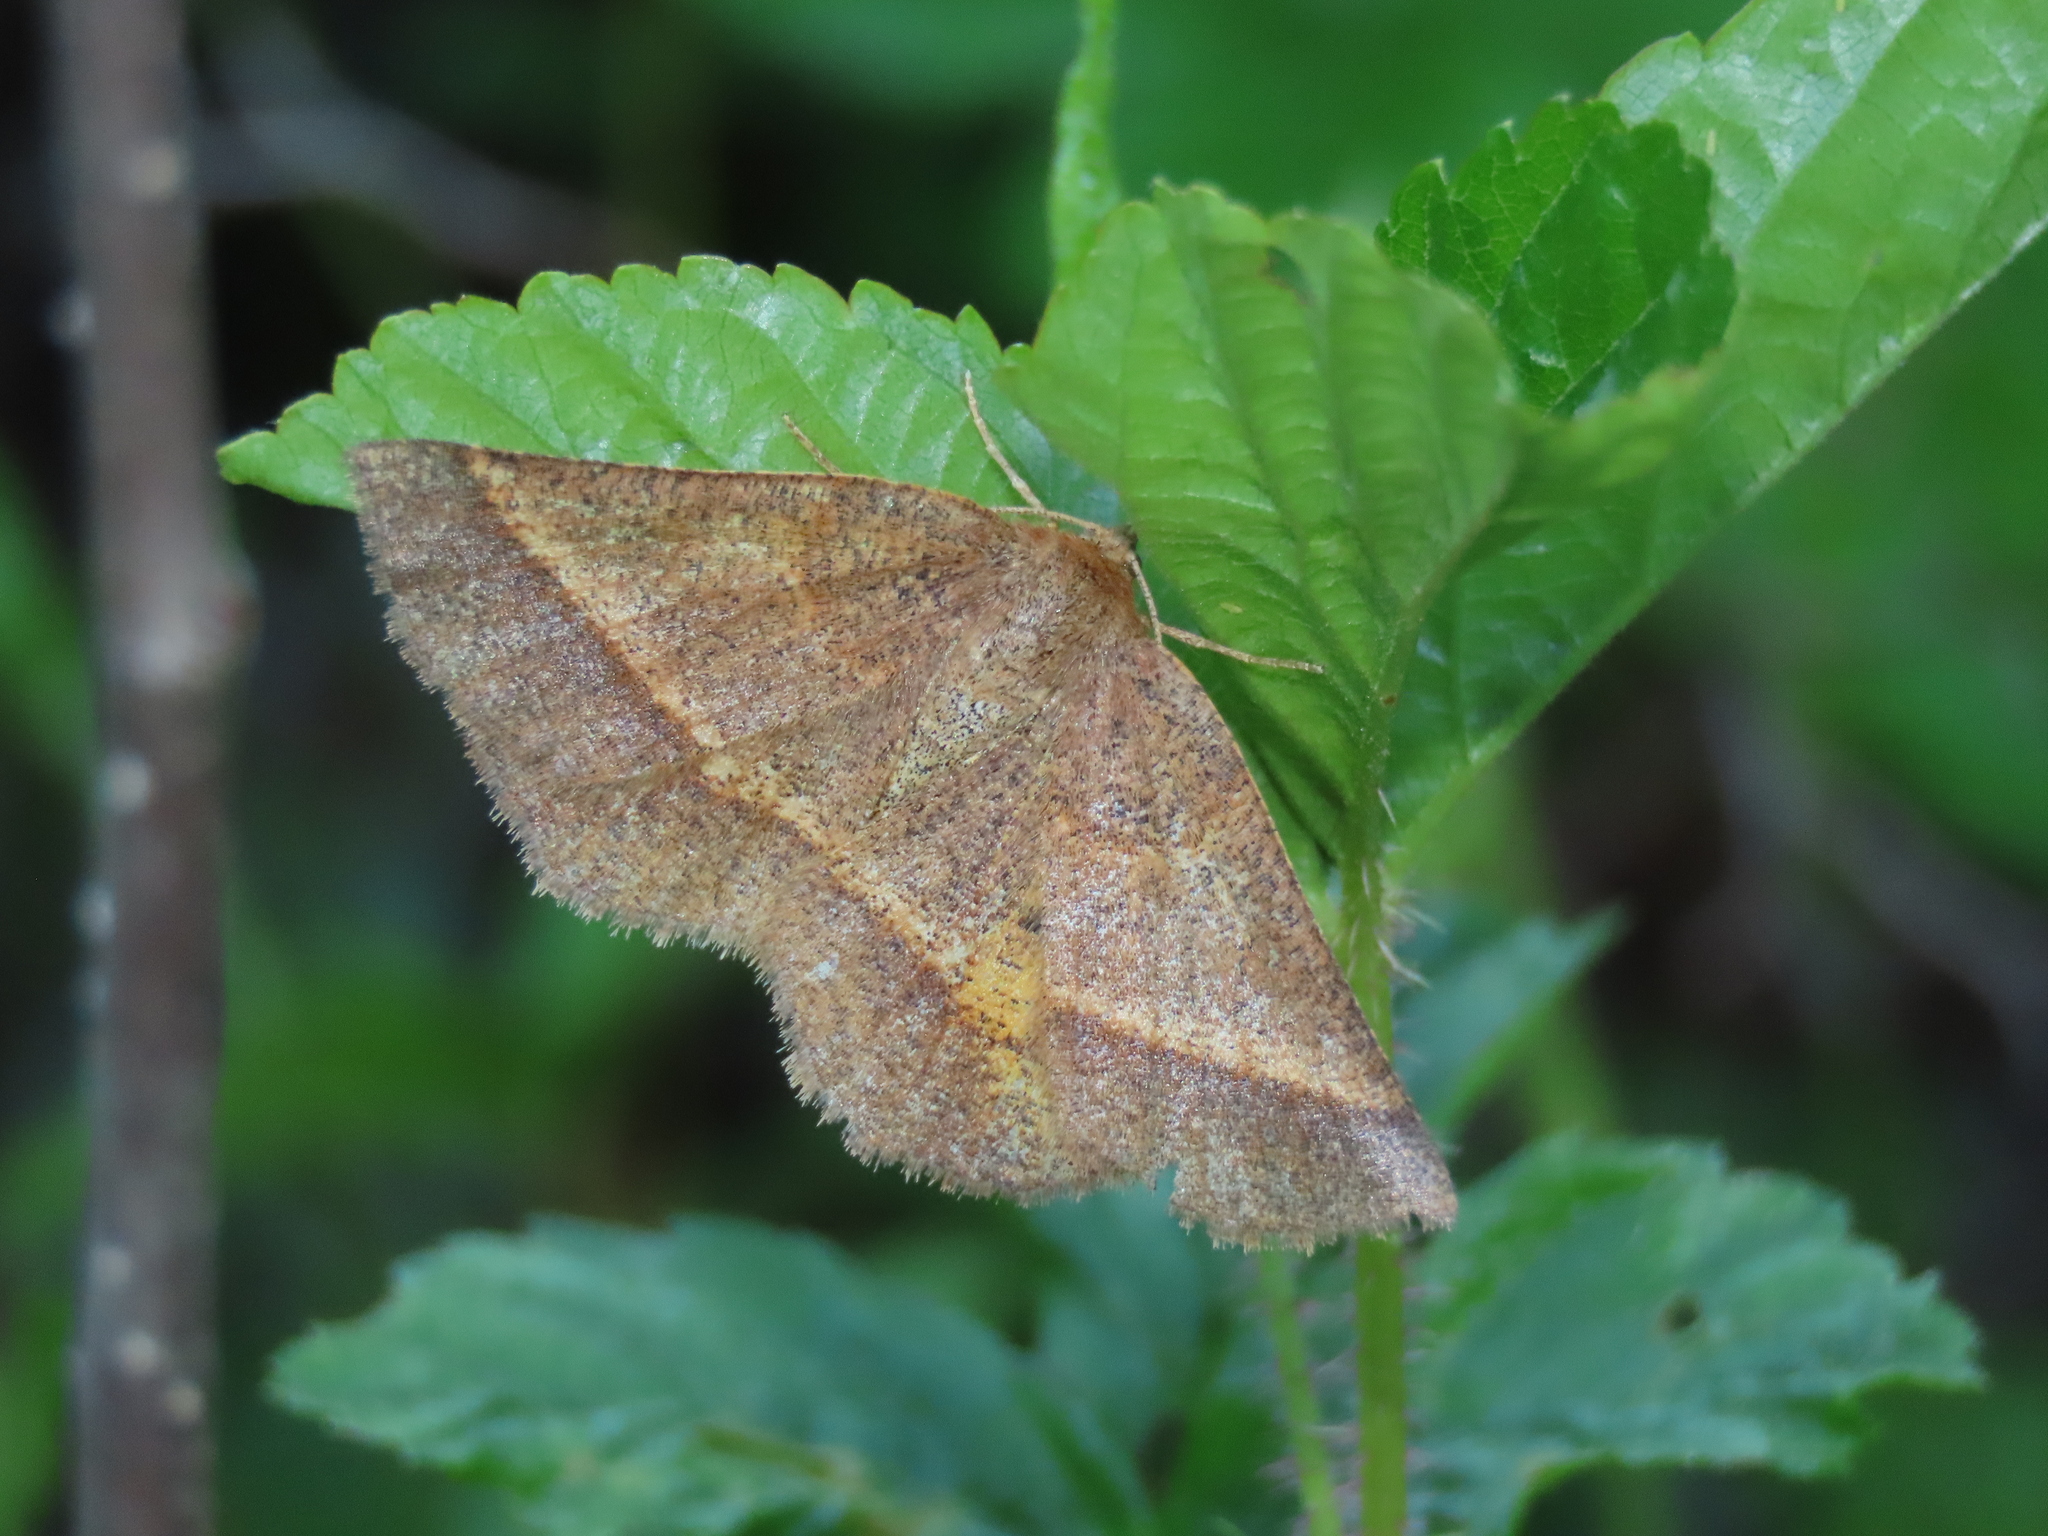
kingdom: Animalia
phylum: Arthropoda
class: Insecta
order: Lepidoptera
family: Geometridae
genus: Metarranthis
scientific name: Metarranthis obfirmaria
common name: Yellow-washed metarranthis
